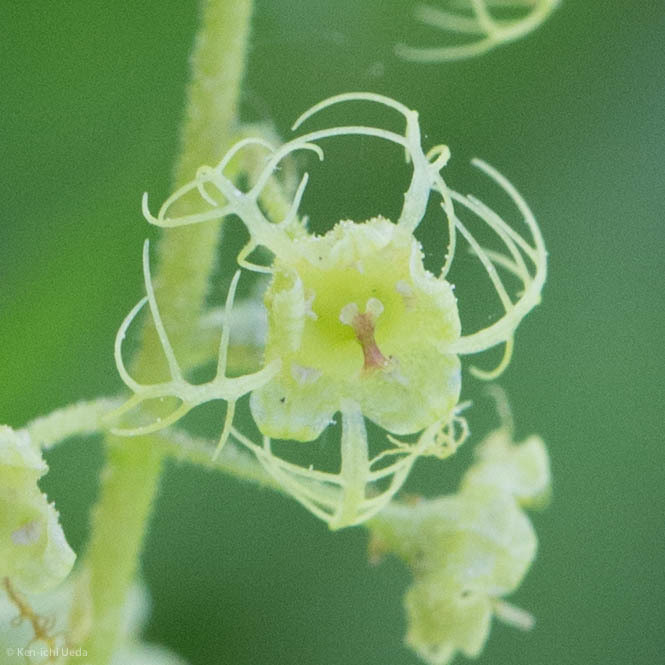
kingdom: Plantae
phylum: Tracheophyta
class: Magnoliopsida
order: Saxifragales
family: Saxifragaceae
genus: Brewerimitella
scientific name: Brewerimitella breweri
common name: Brewer's bishop's-cap
